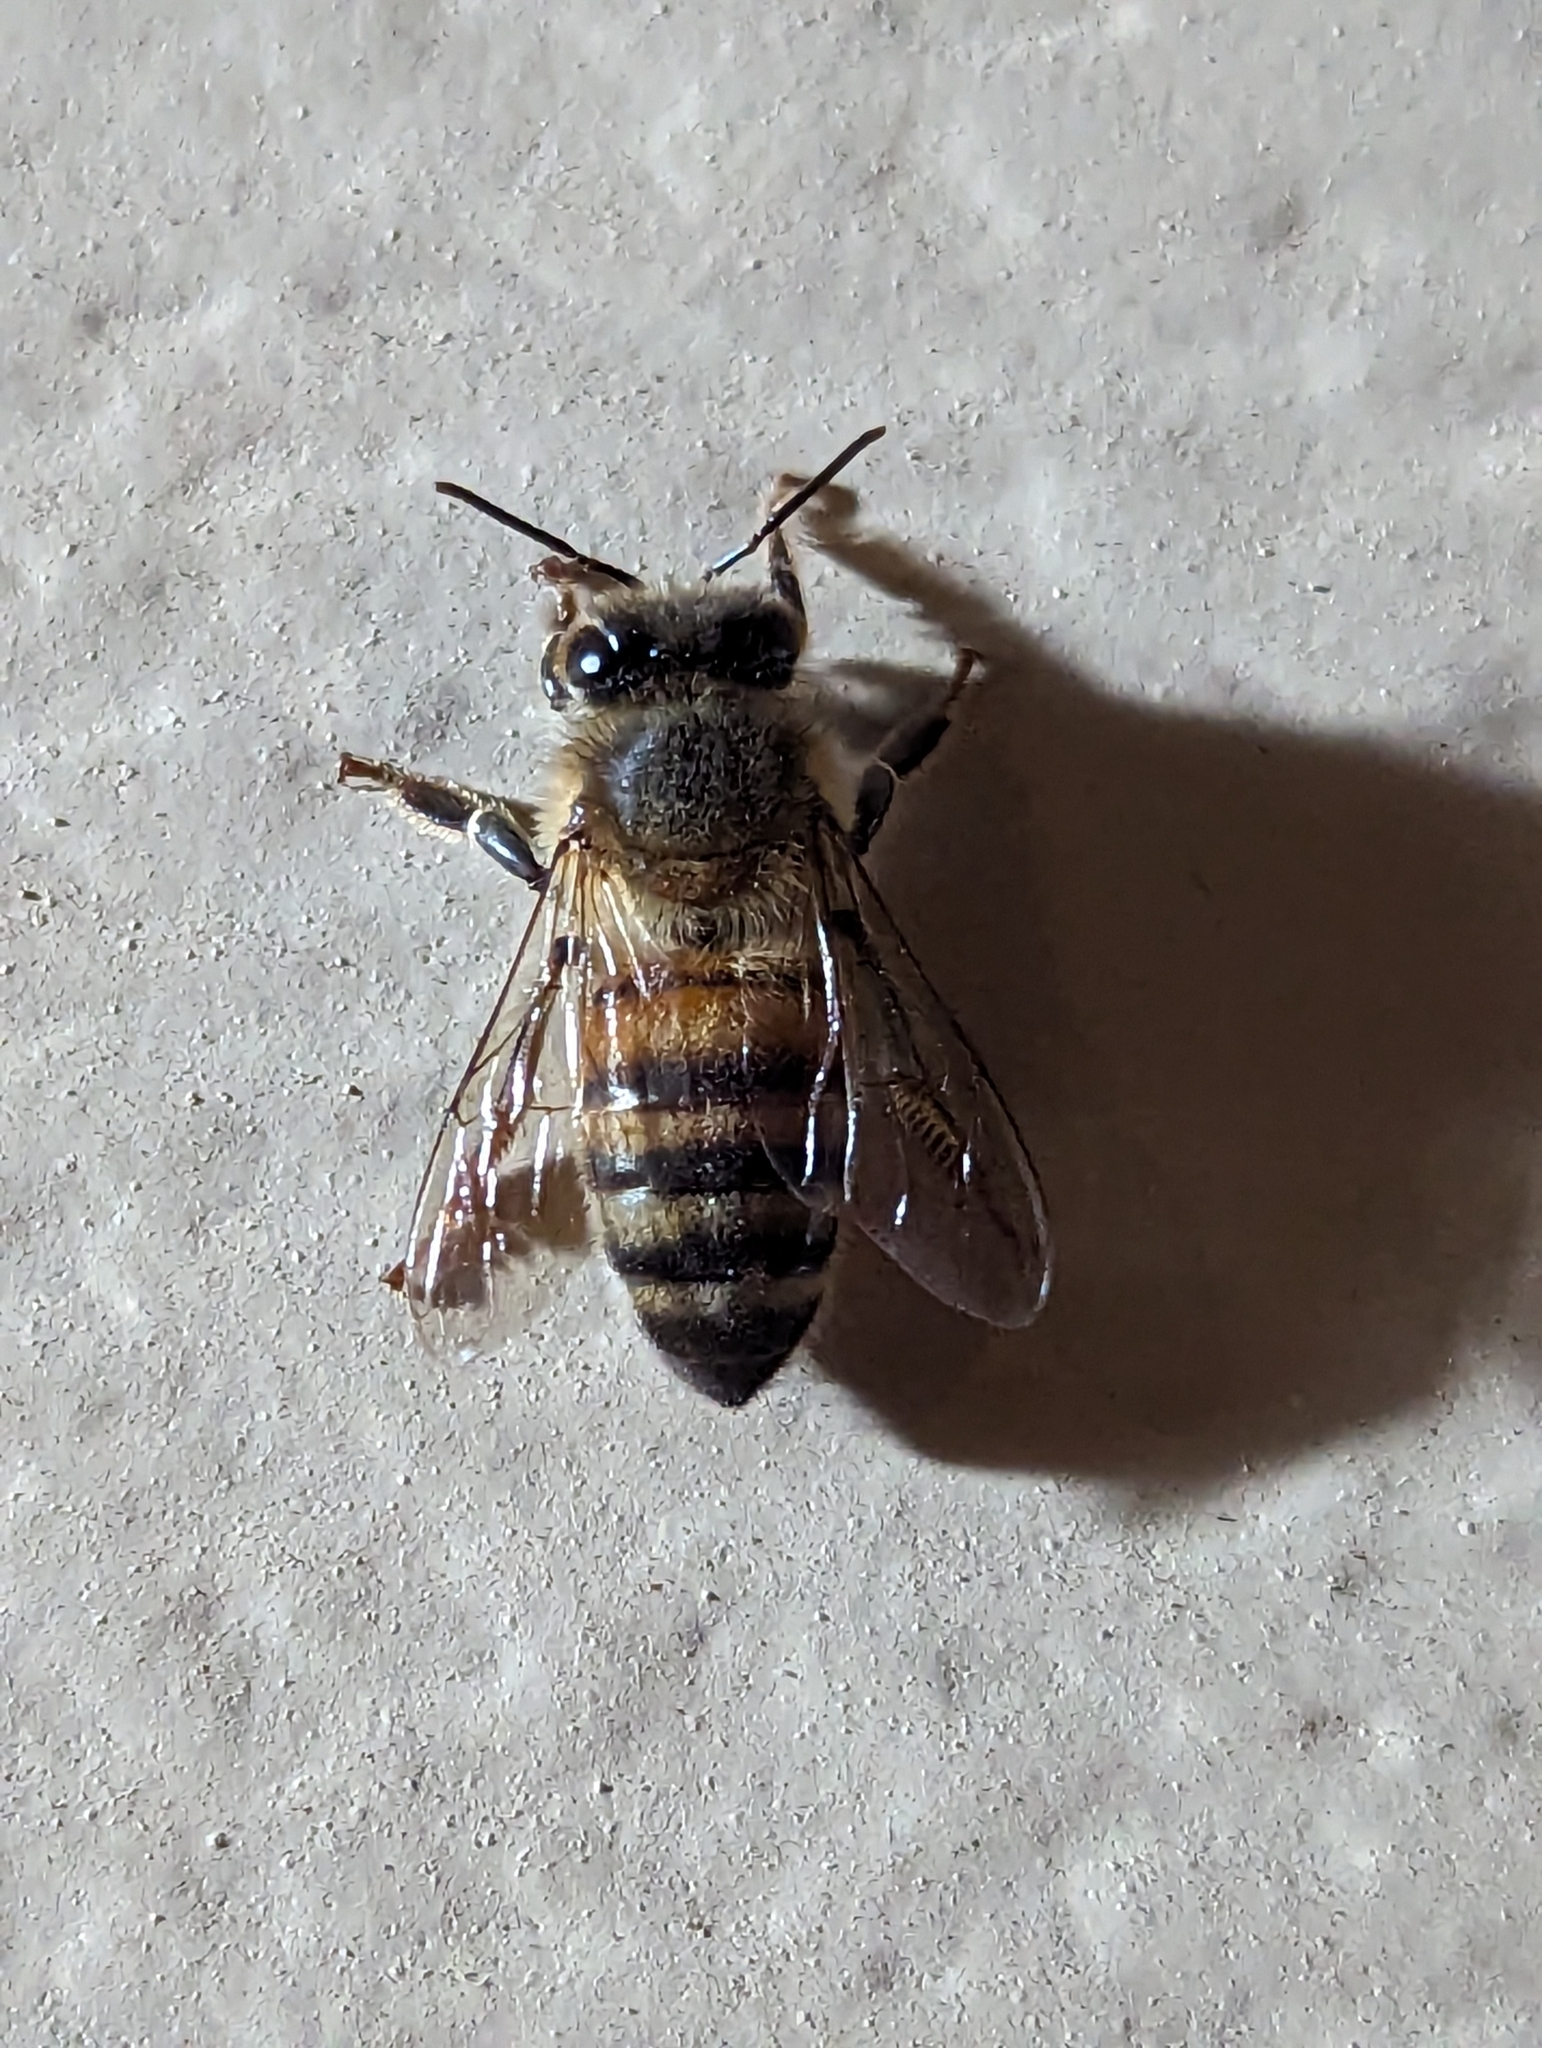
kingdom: Animalia
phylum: Arthropoda
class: Insecta
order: Hymenoptera
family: Apidae
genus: Apis
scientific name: Apis mellifera
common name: Honey bee
